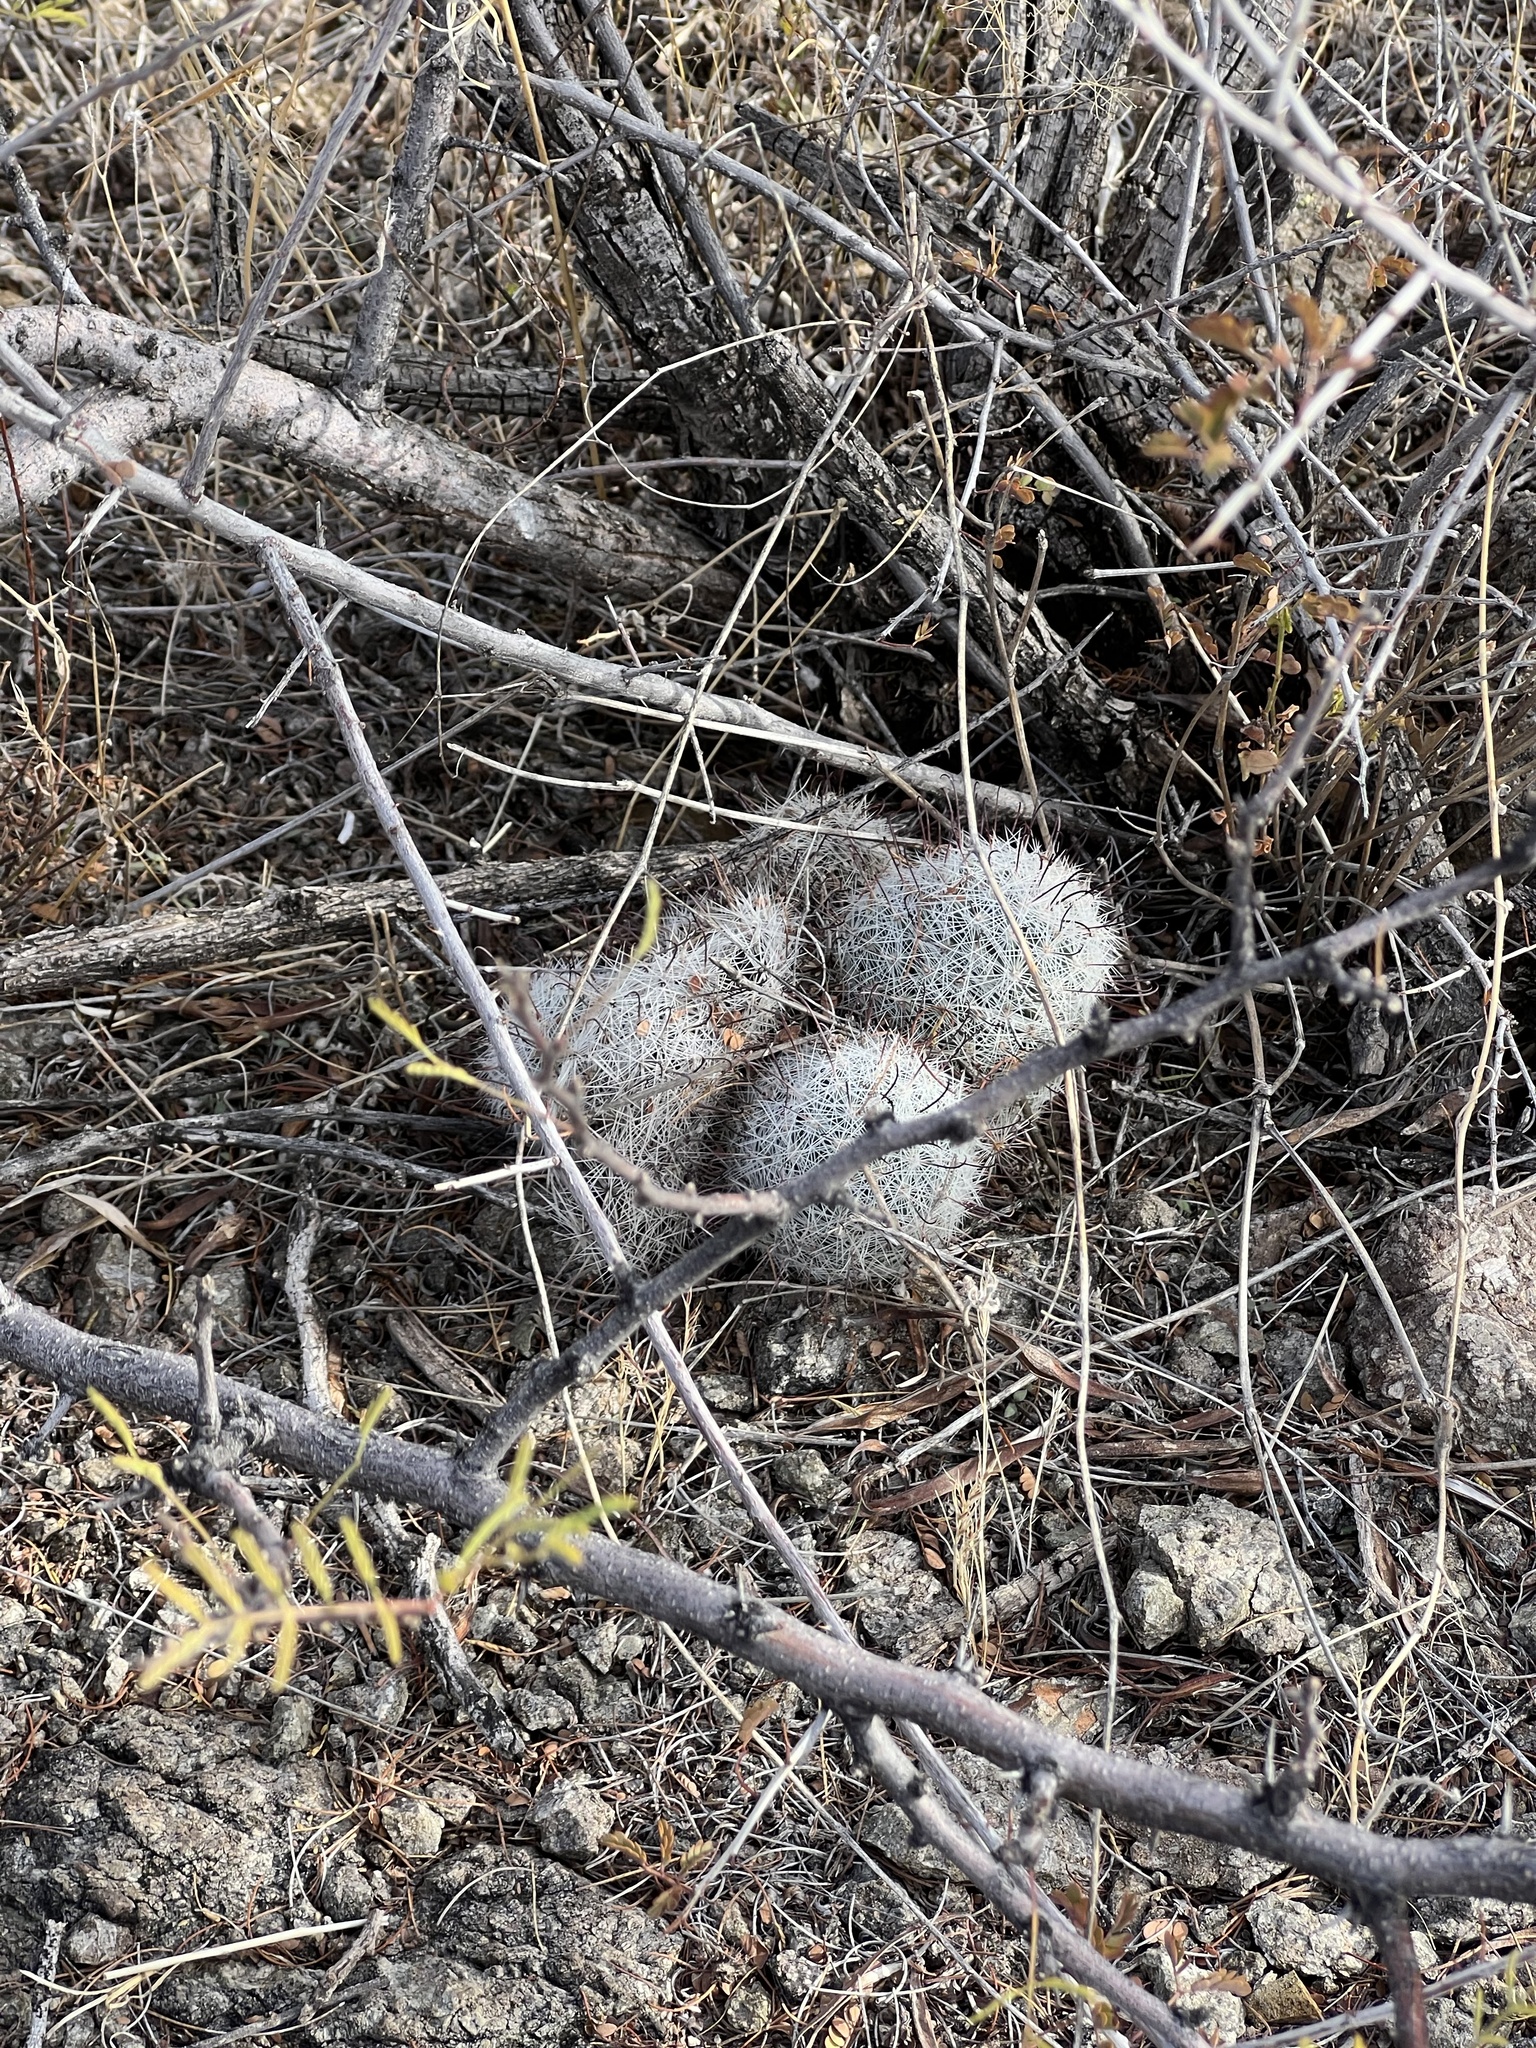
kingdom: Plantae
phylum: Tracheophyta
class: Magnoliopsida
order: Caryophyllales
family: Cactaceae
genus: Cochemiea
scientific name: Cochemiea grahamii
